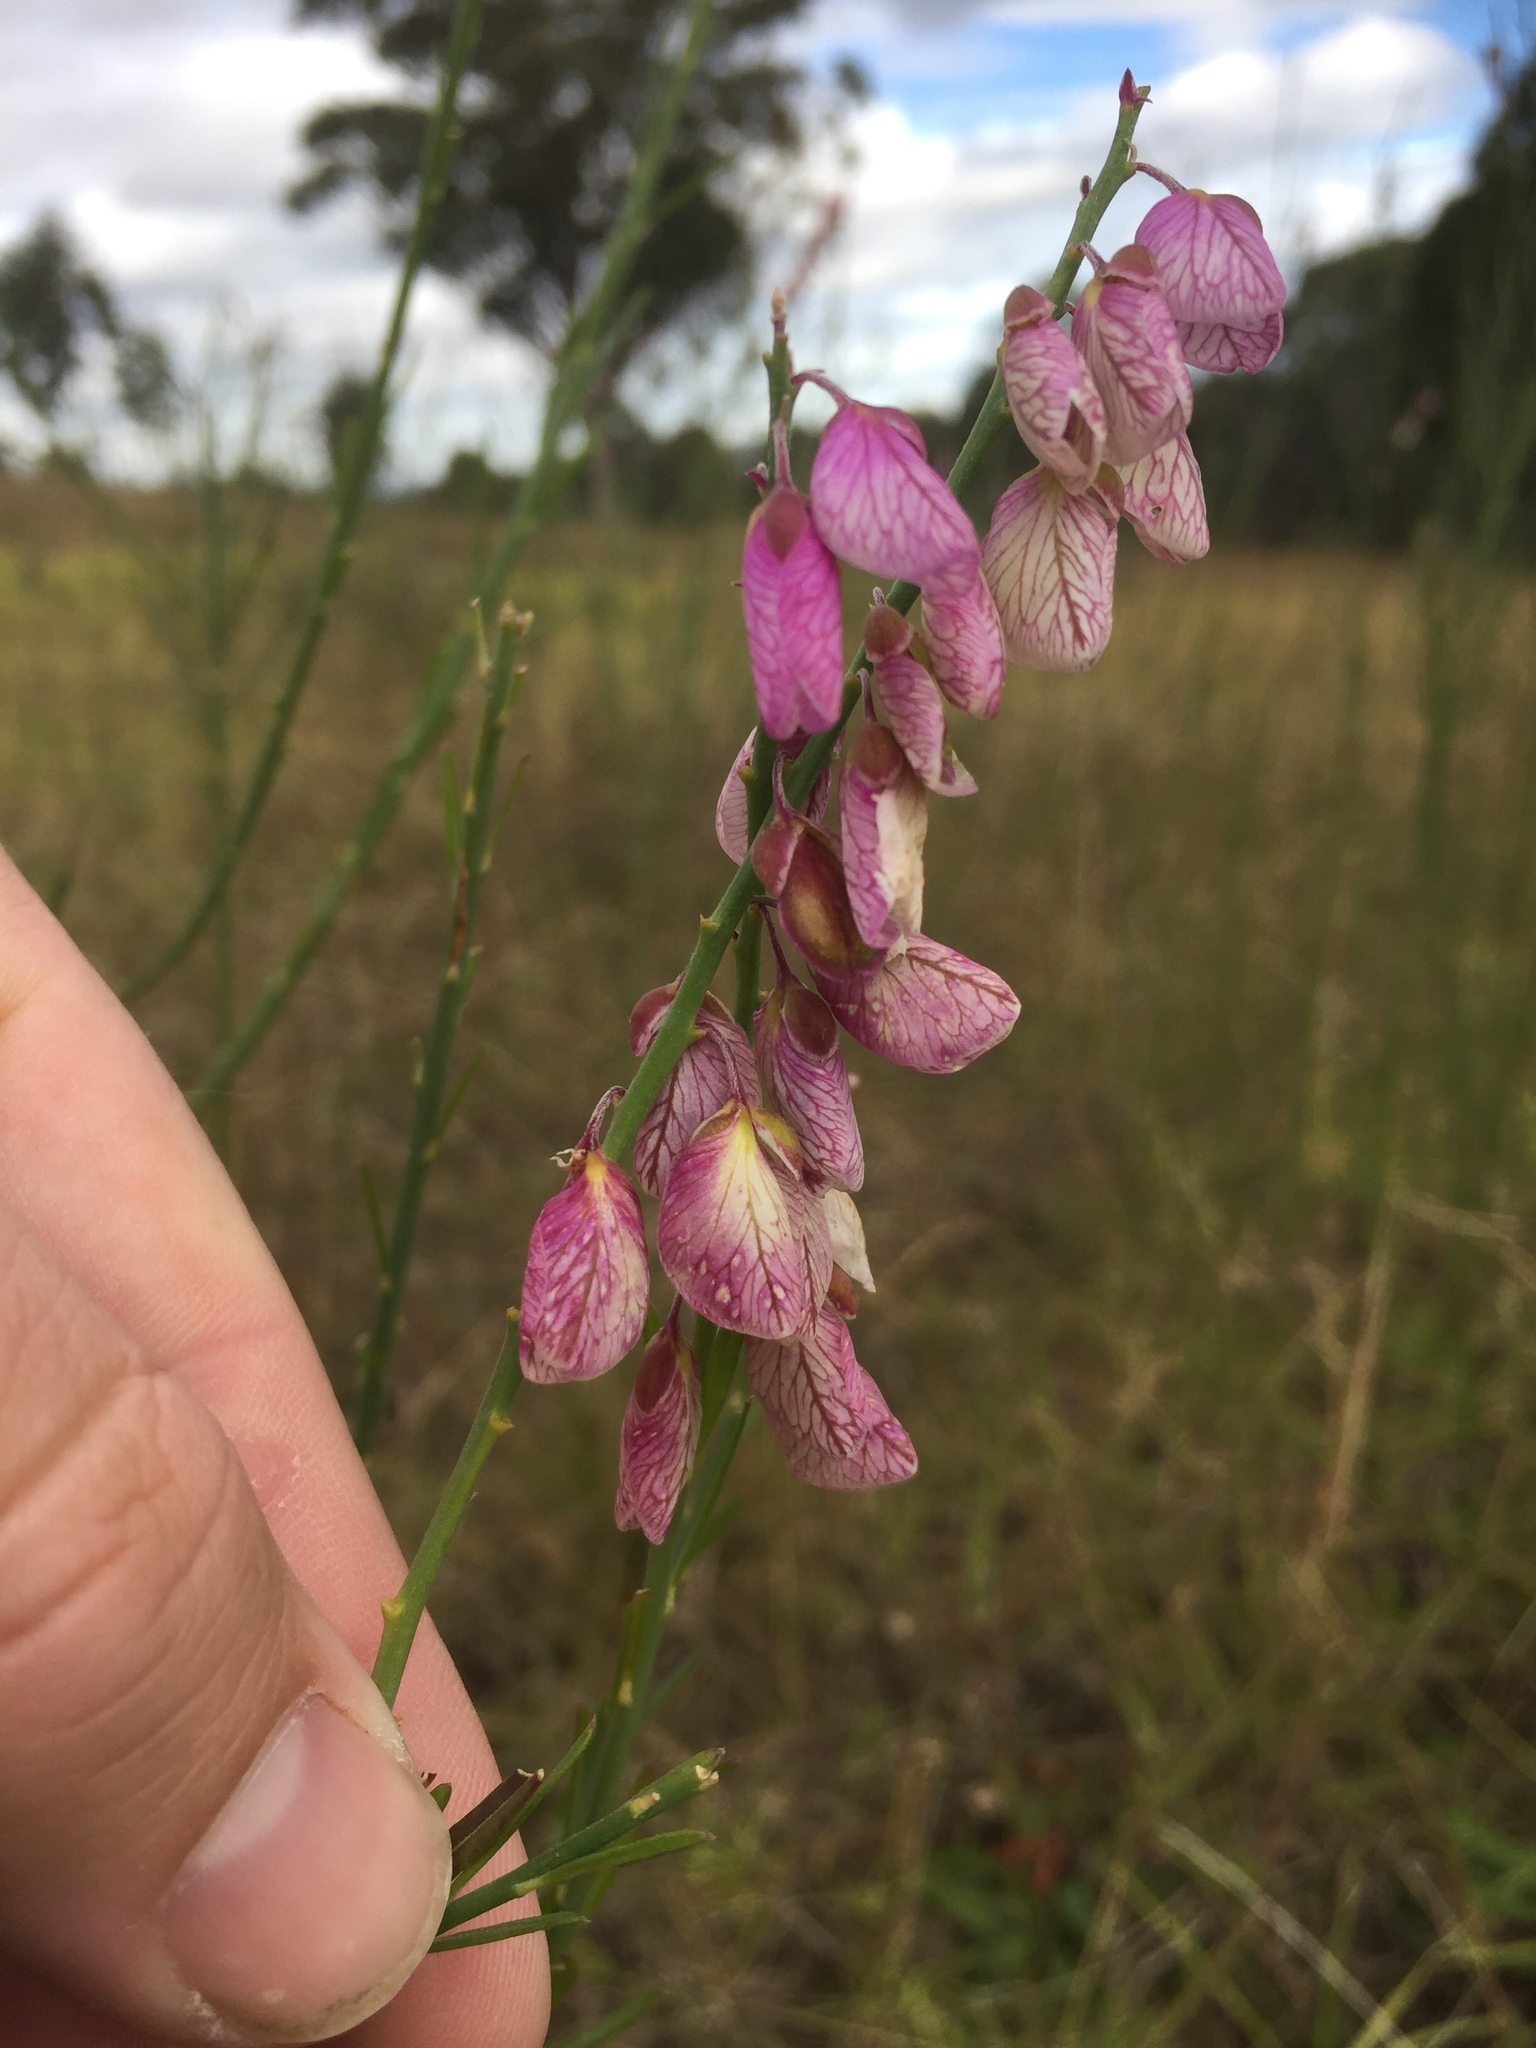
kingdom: Plantae
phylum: Tracheophyta
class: Magnoliopsida
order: Fabales
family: Polygalaceae
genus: Polygala
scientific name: Polygala virgata
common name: Milkwort
